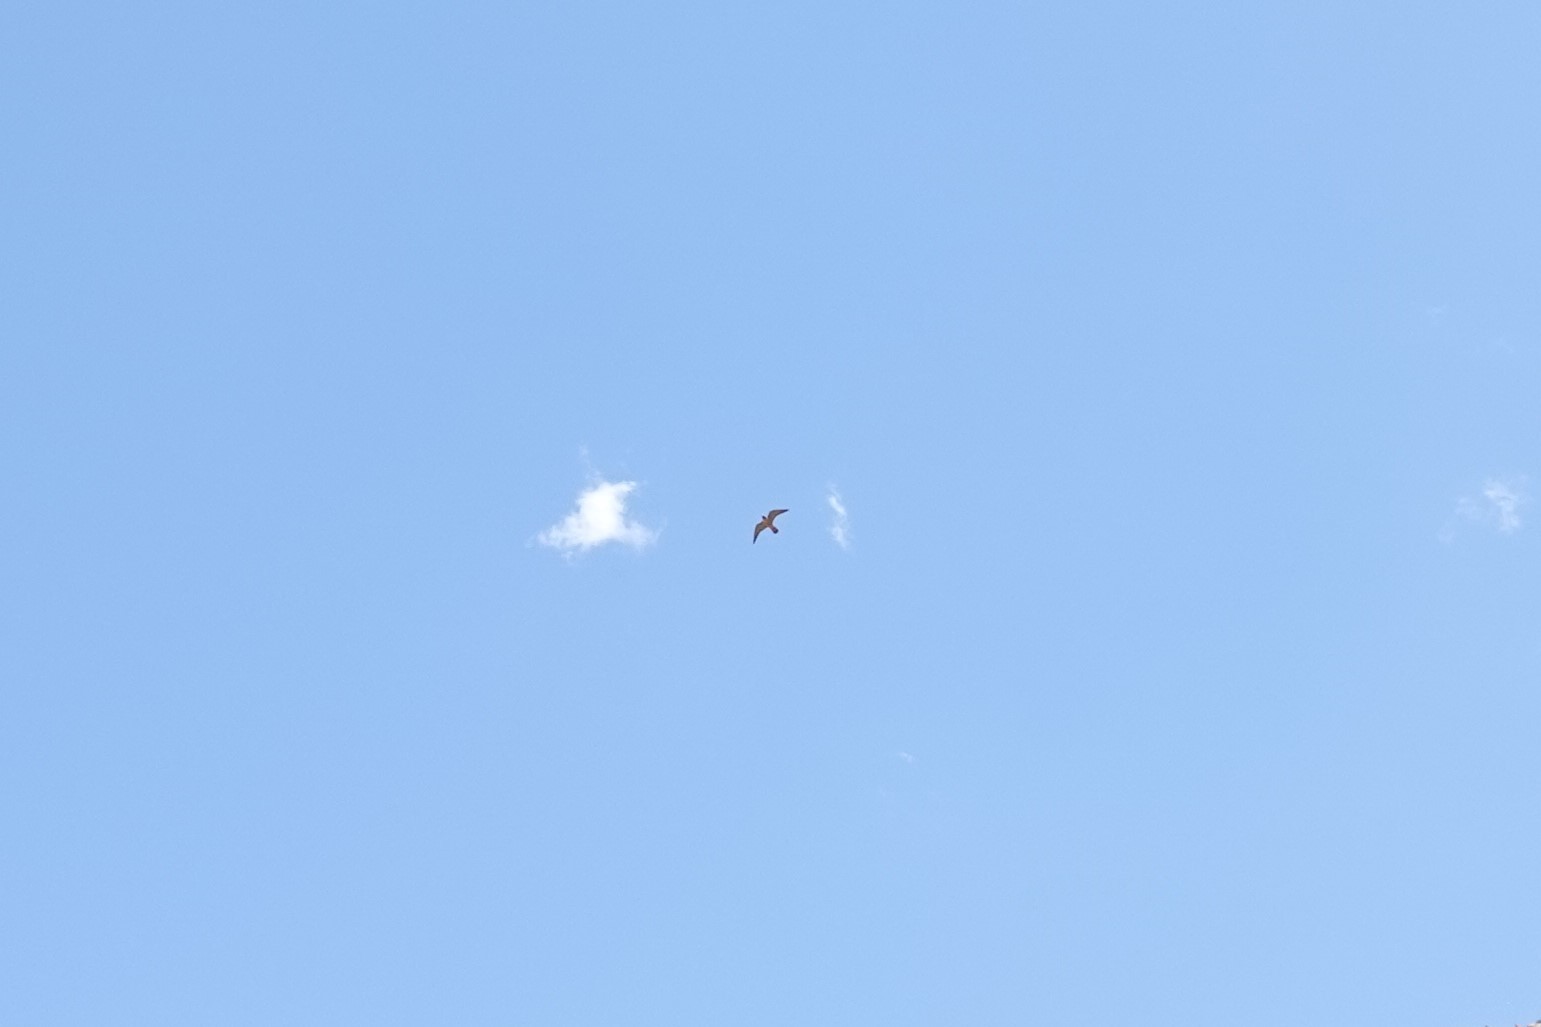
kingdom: Animalia
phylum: Chordata
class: Aves
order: Falconiformes
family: Falconidae
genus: Falco
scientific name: Falco peregrinus
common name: Peregrine falcon
